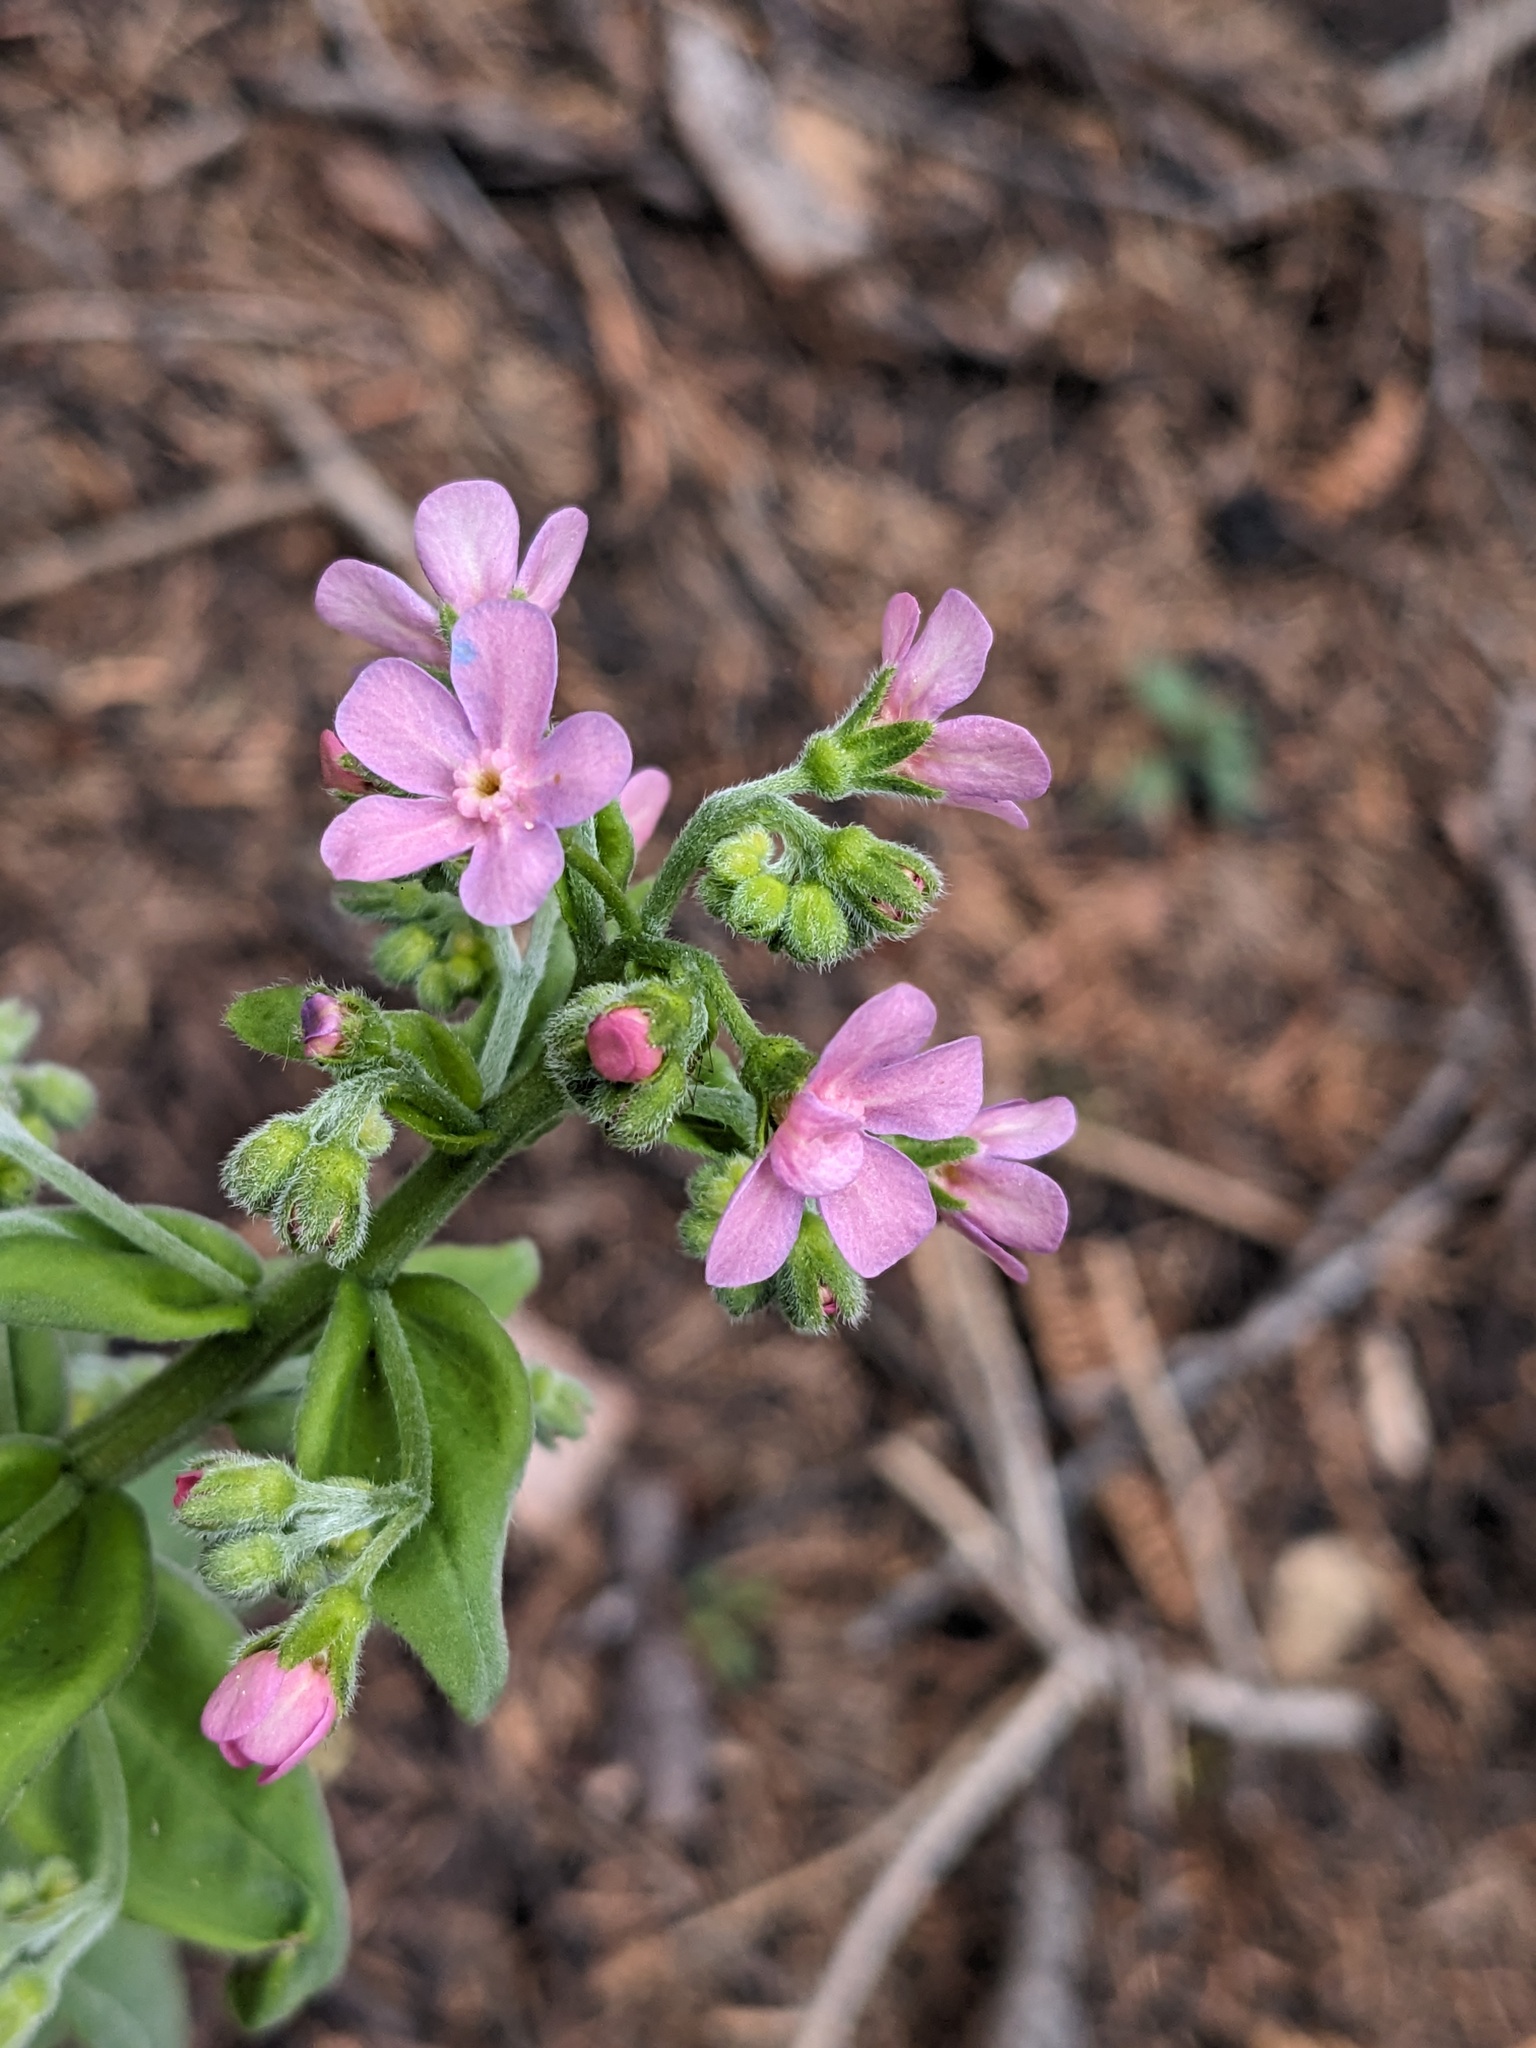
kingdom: Plantae
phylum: Tracheophyta
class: Magnoliopsida
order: Boraginales
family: Boraginaceae
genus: Hackelia
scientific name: Hackelia mundula
